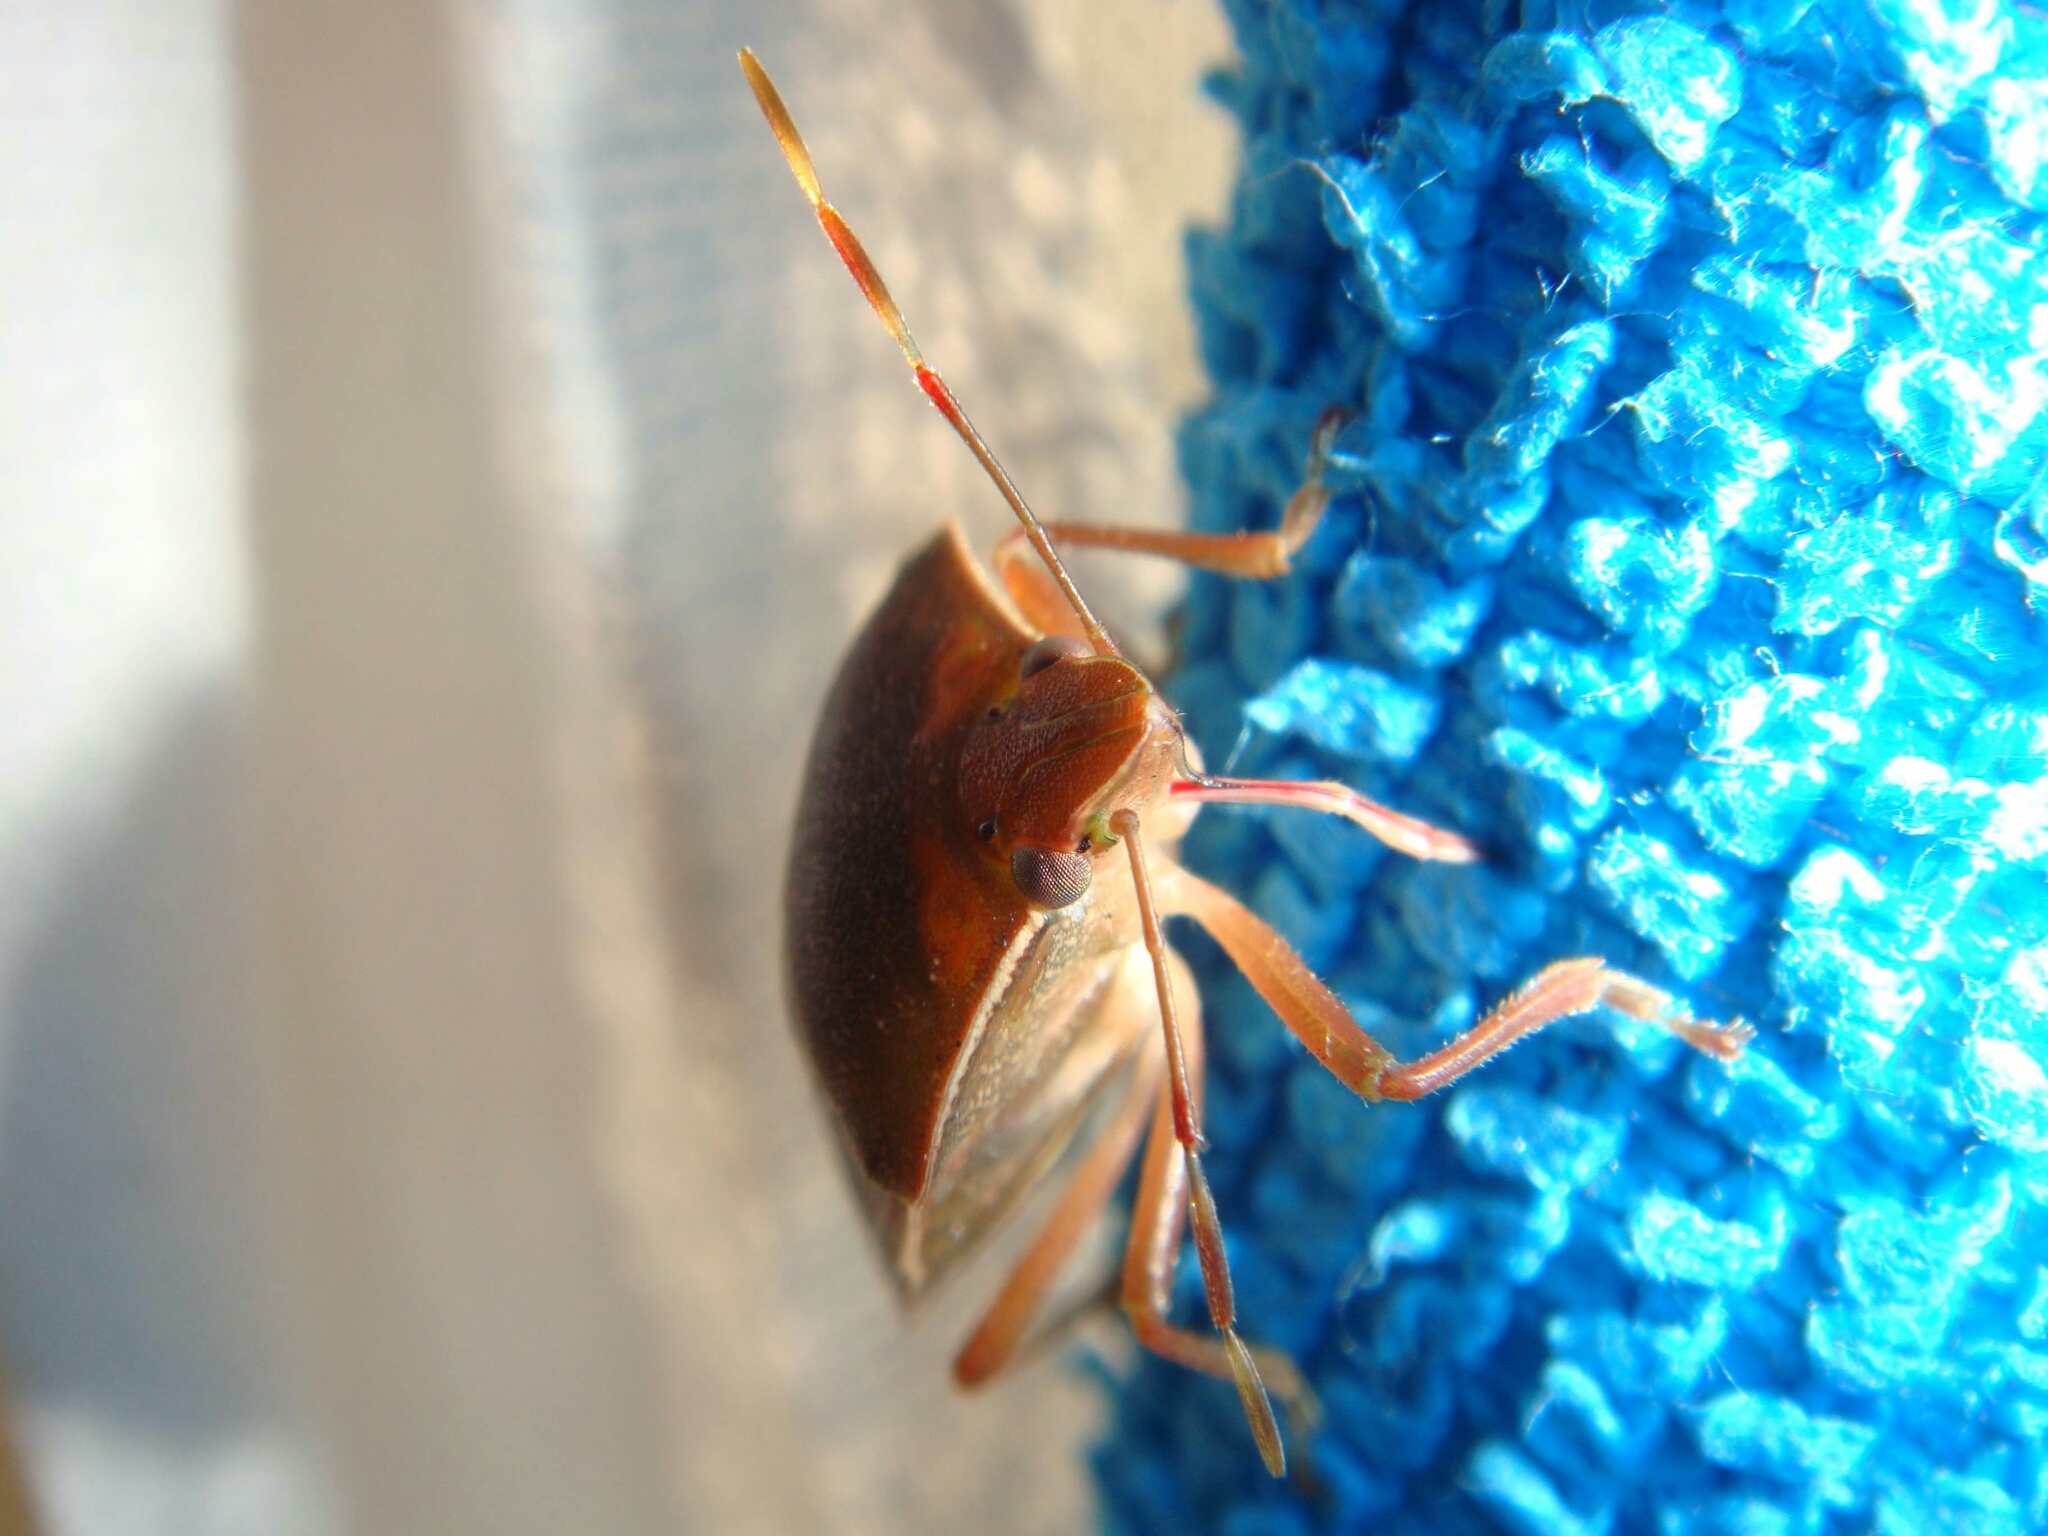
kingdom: Animalia
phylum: Arthropoda
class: Insecta
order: Hemiptera
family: Pentatomidae
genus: Nezara
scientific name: Nezara viridula
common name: Southern green stink bug
